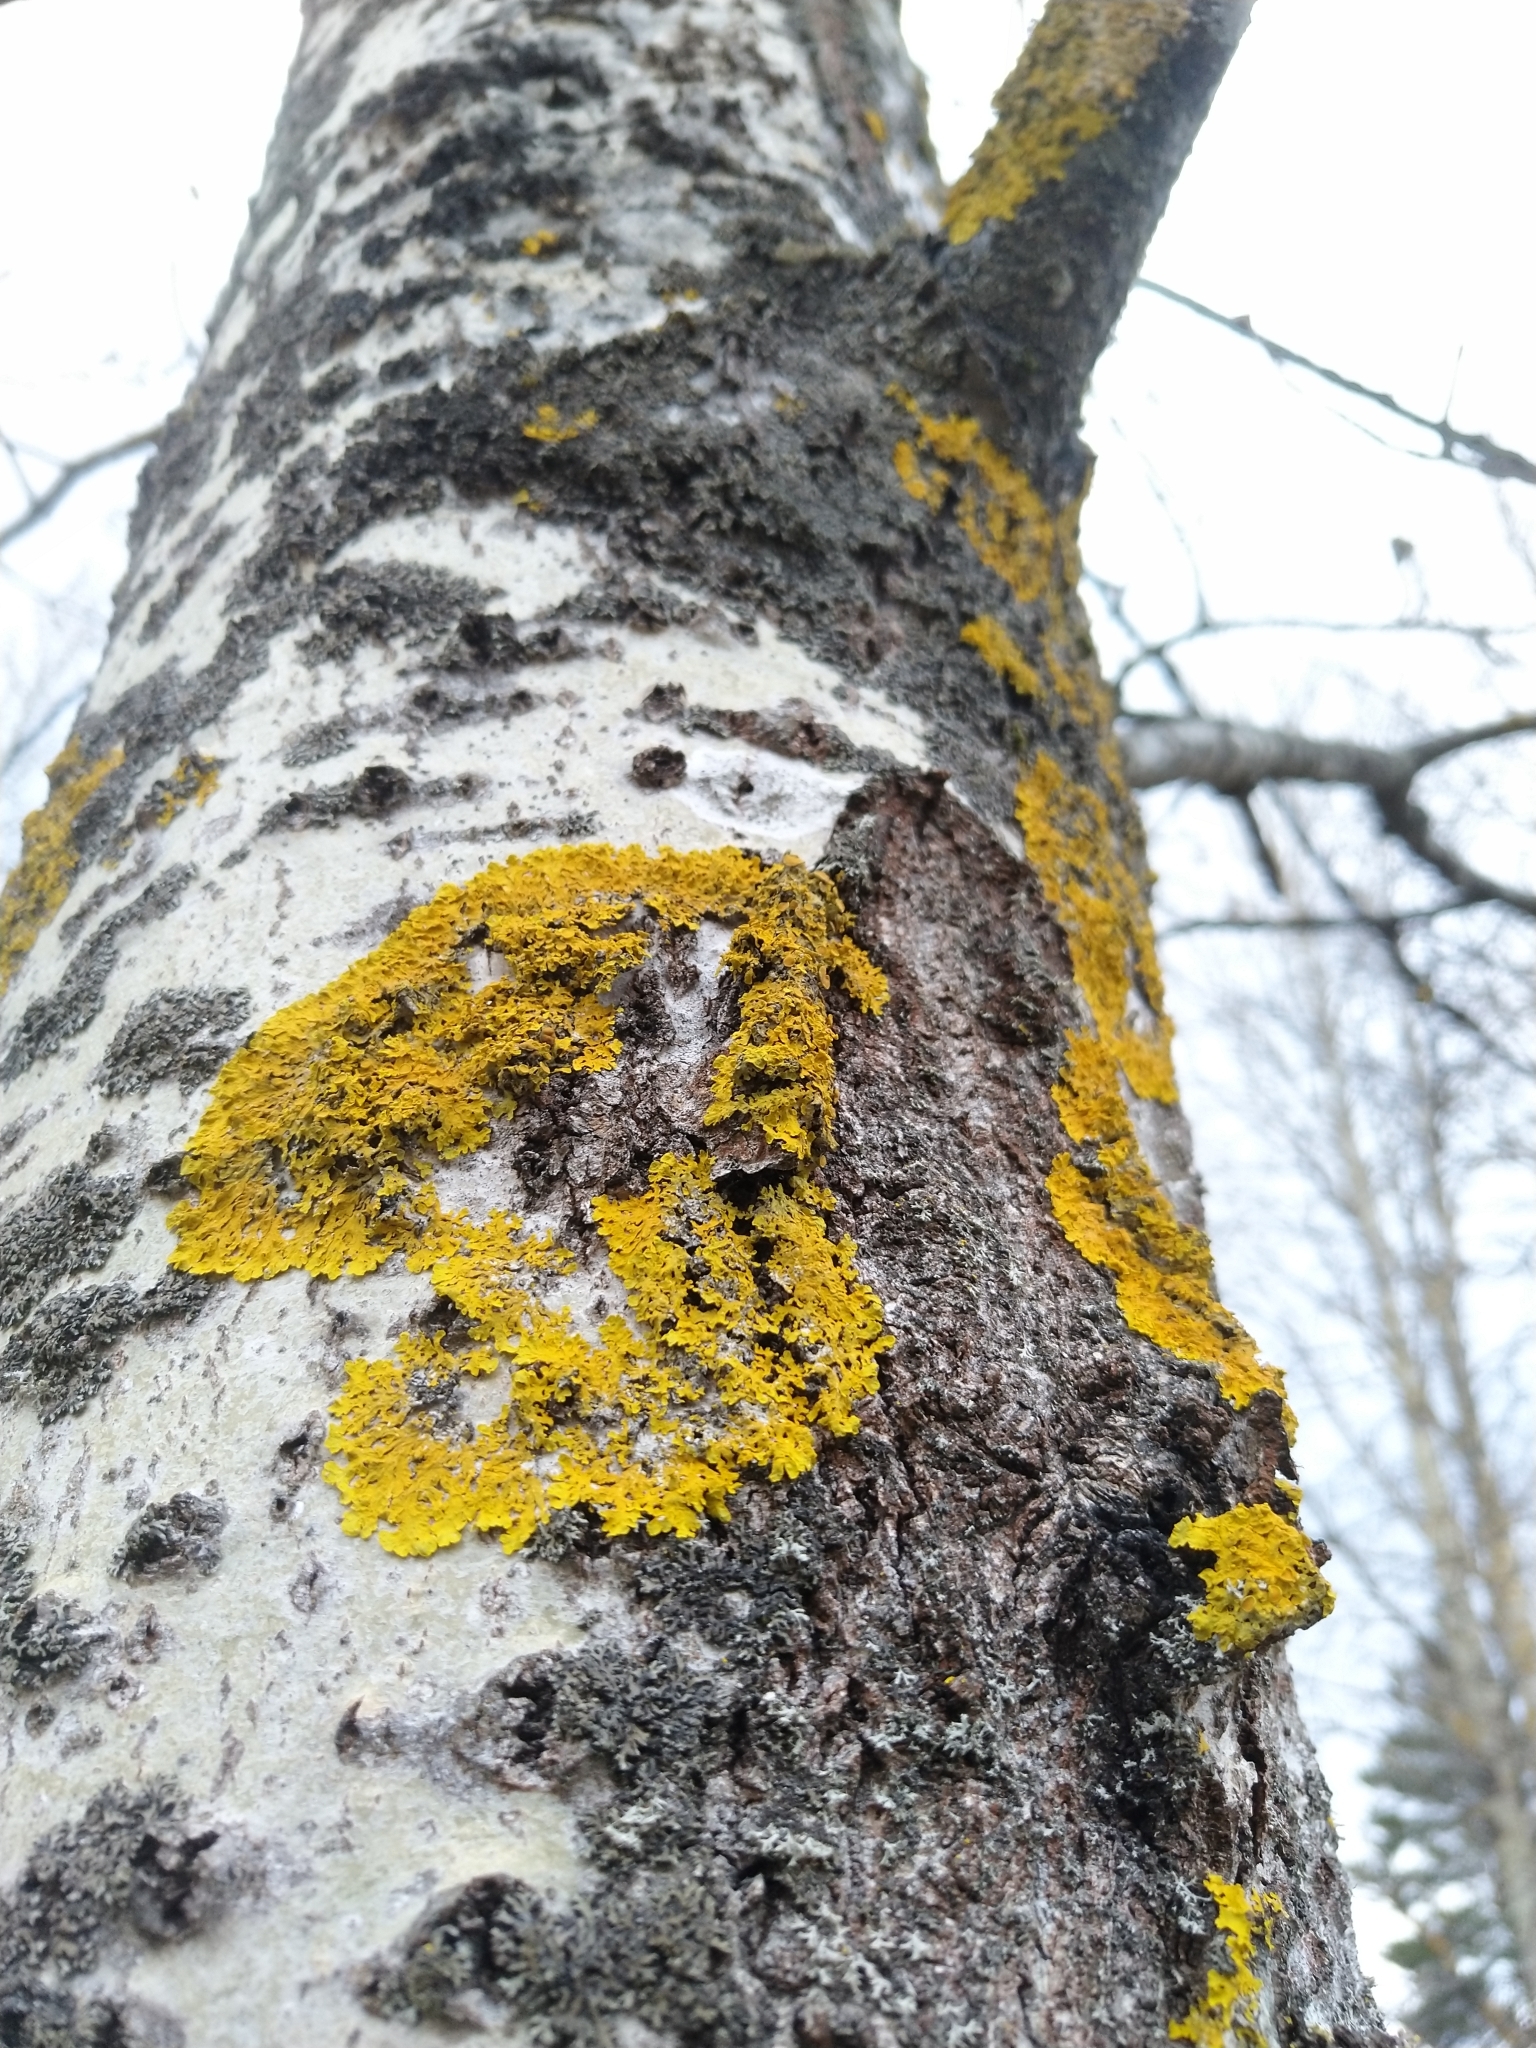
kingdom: Fungi
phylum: Ascomycota
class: Lecanoromycetes
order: Teloschistales
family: Teloschistaceae
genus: Xanthoria
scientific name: Xanthoria parietina
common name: Common orange lichen
